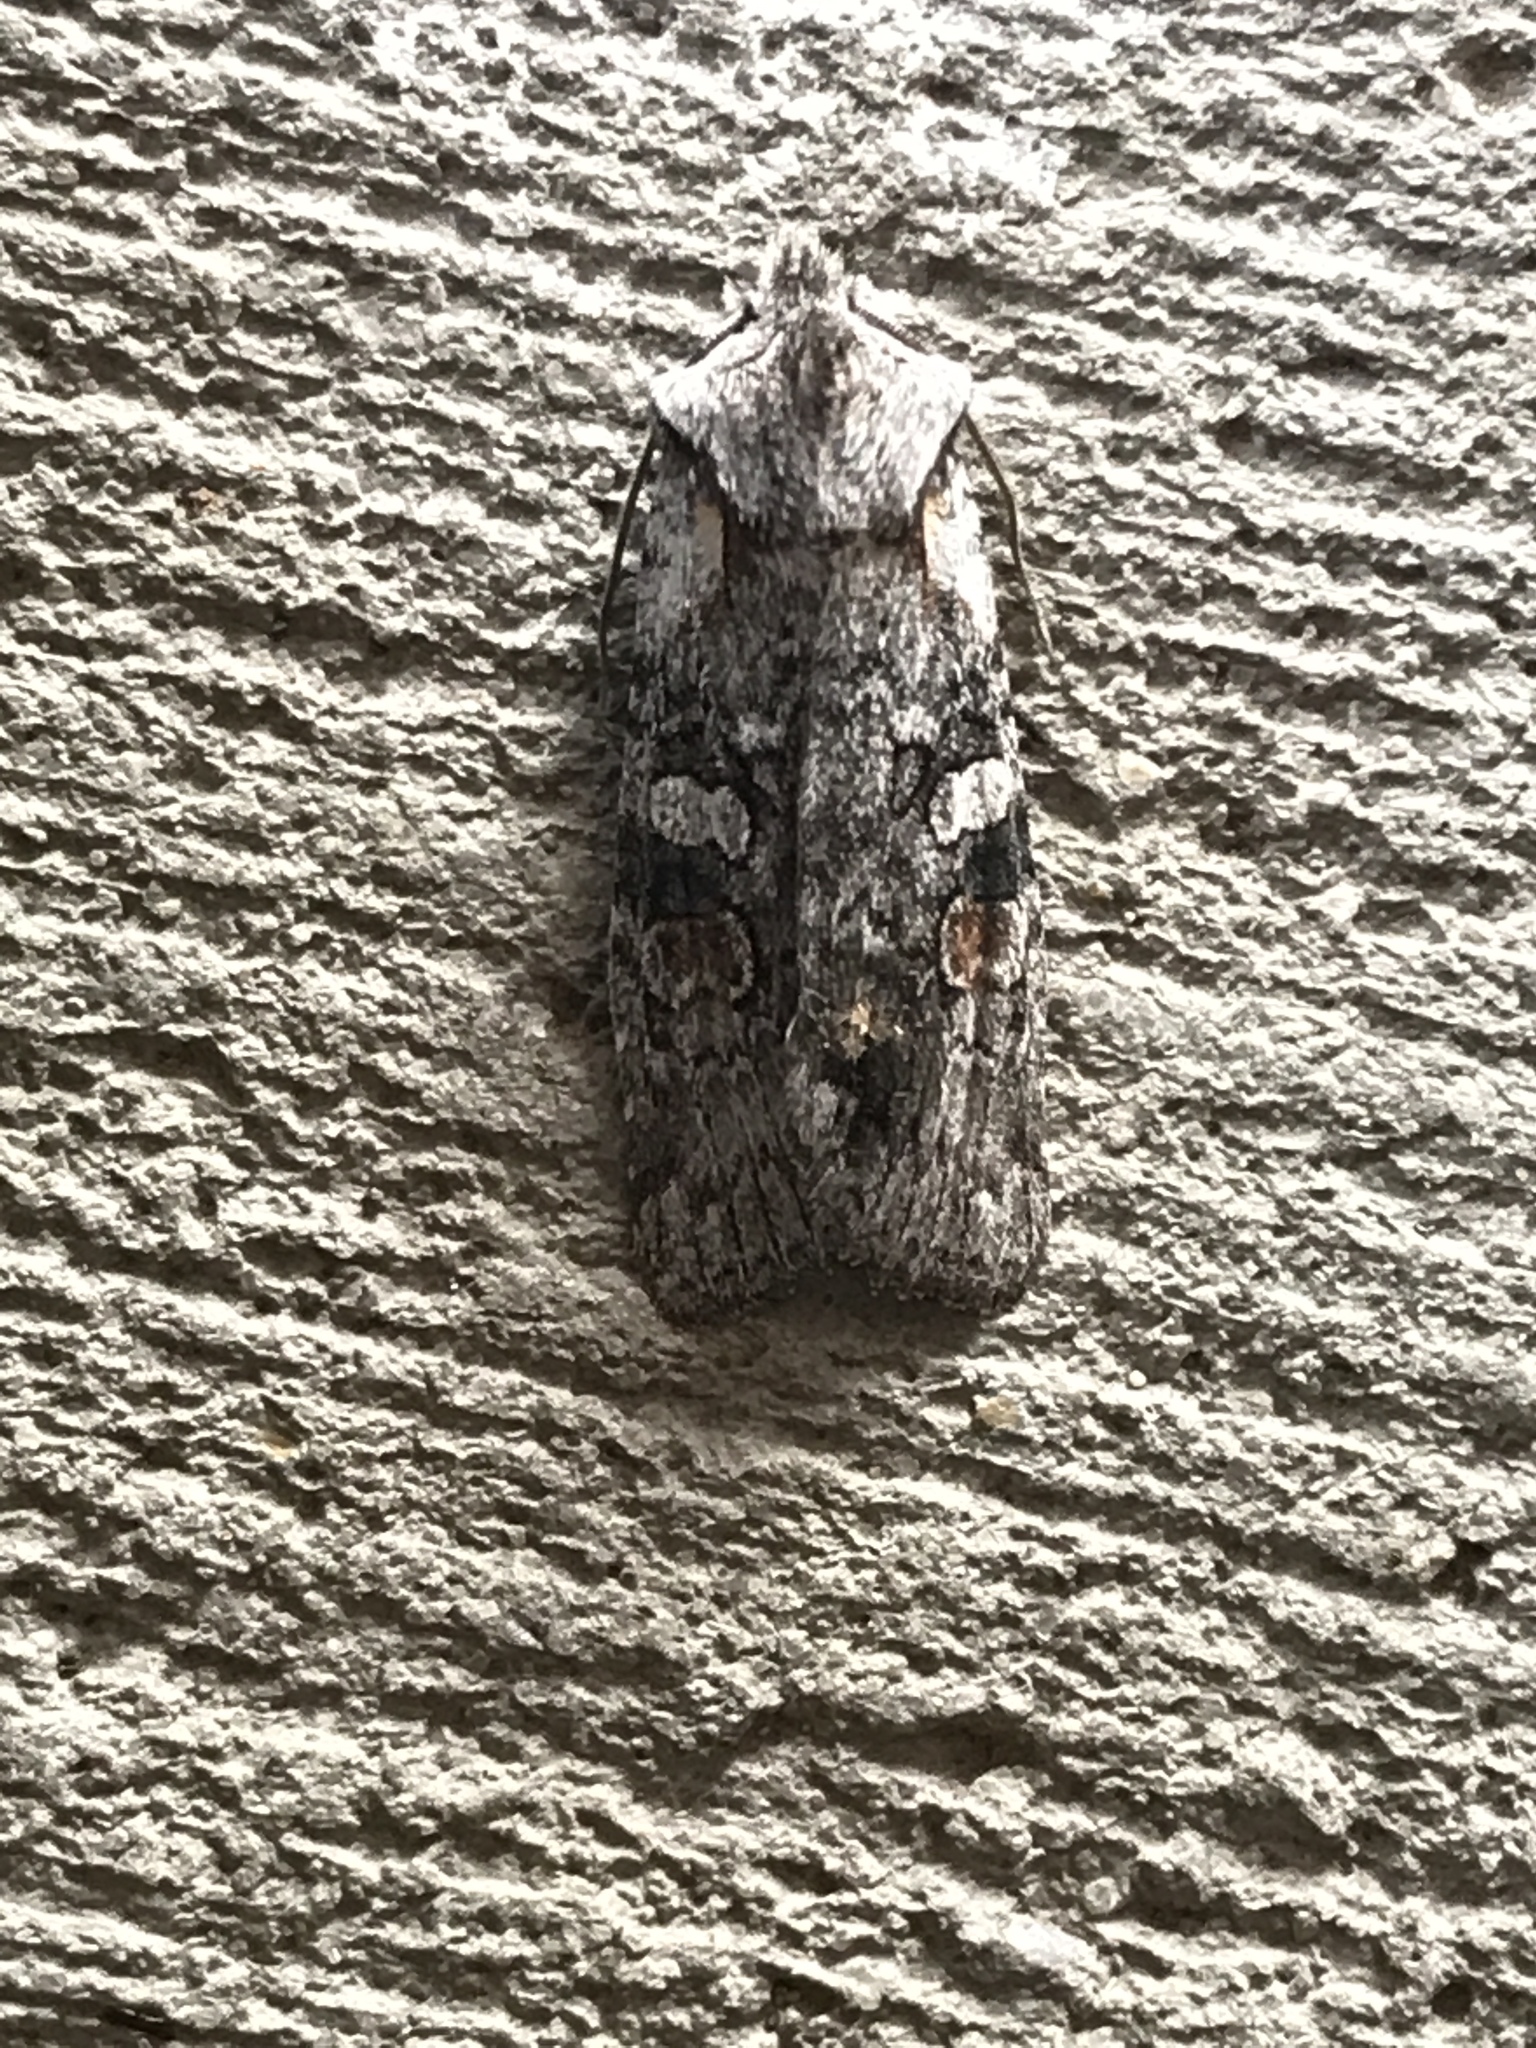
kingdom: Animalia
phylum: Arthropoda
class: Insecta
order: Lepidoptera
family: Noctuidae
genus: Lithophane
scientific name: Lithophane torrida
